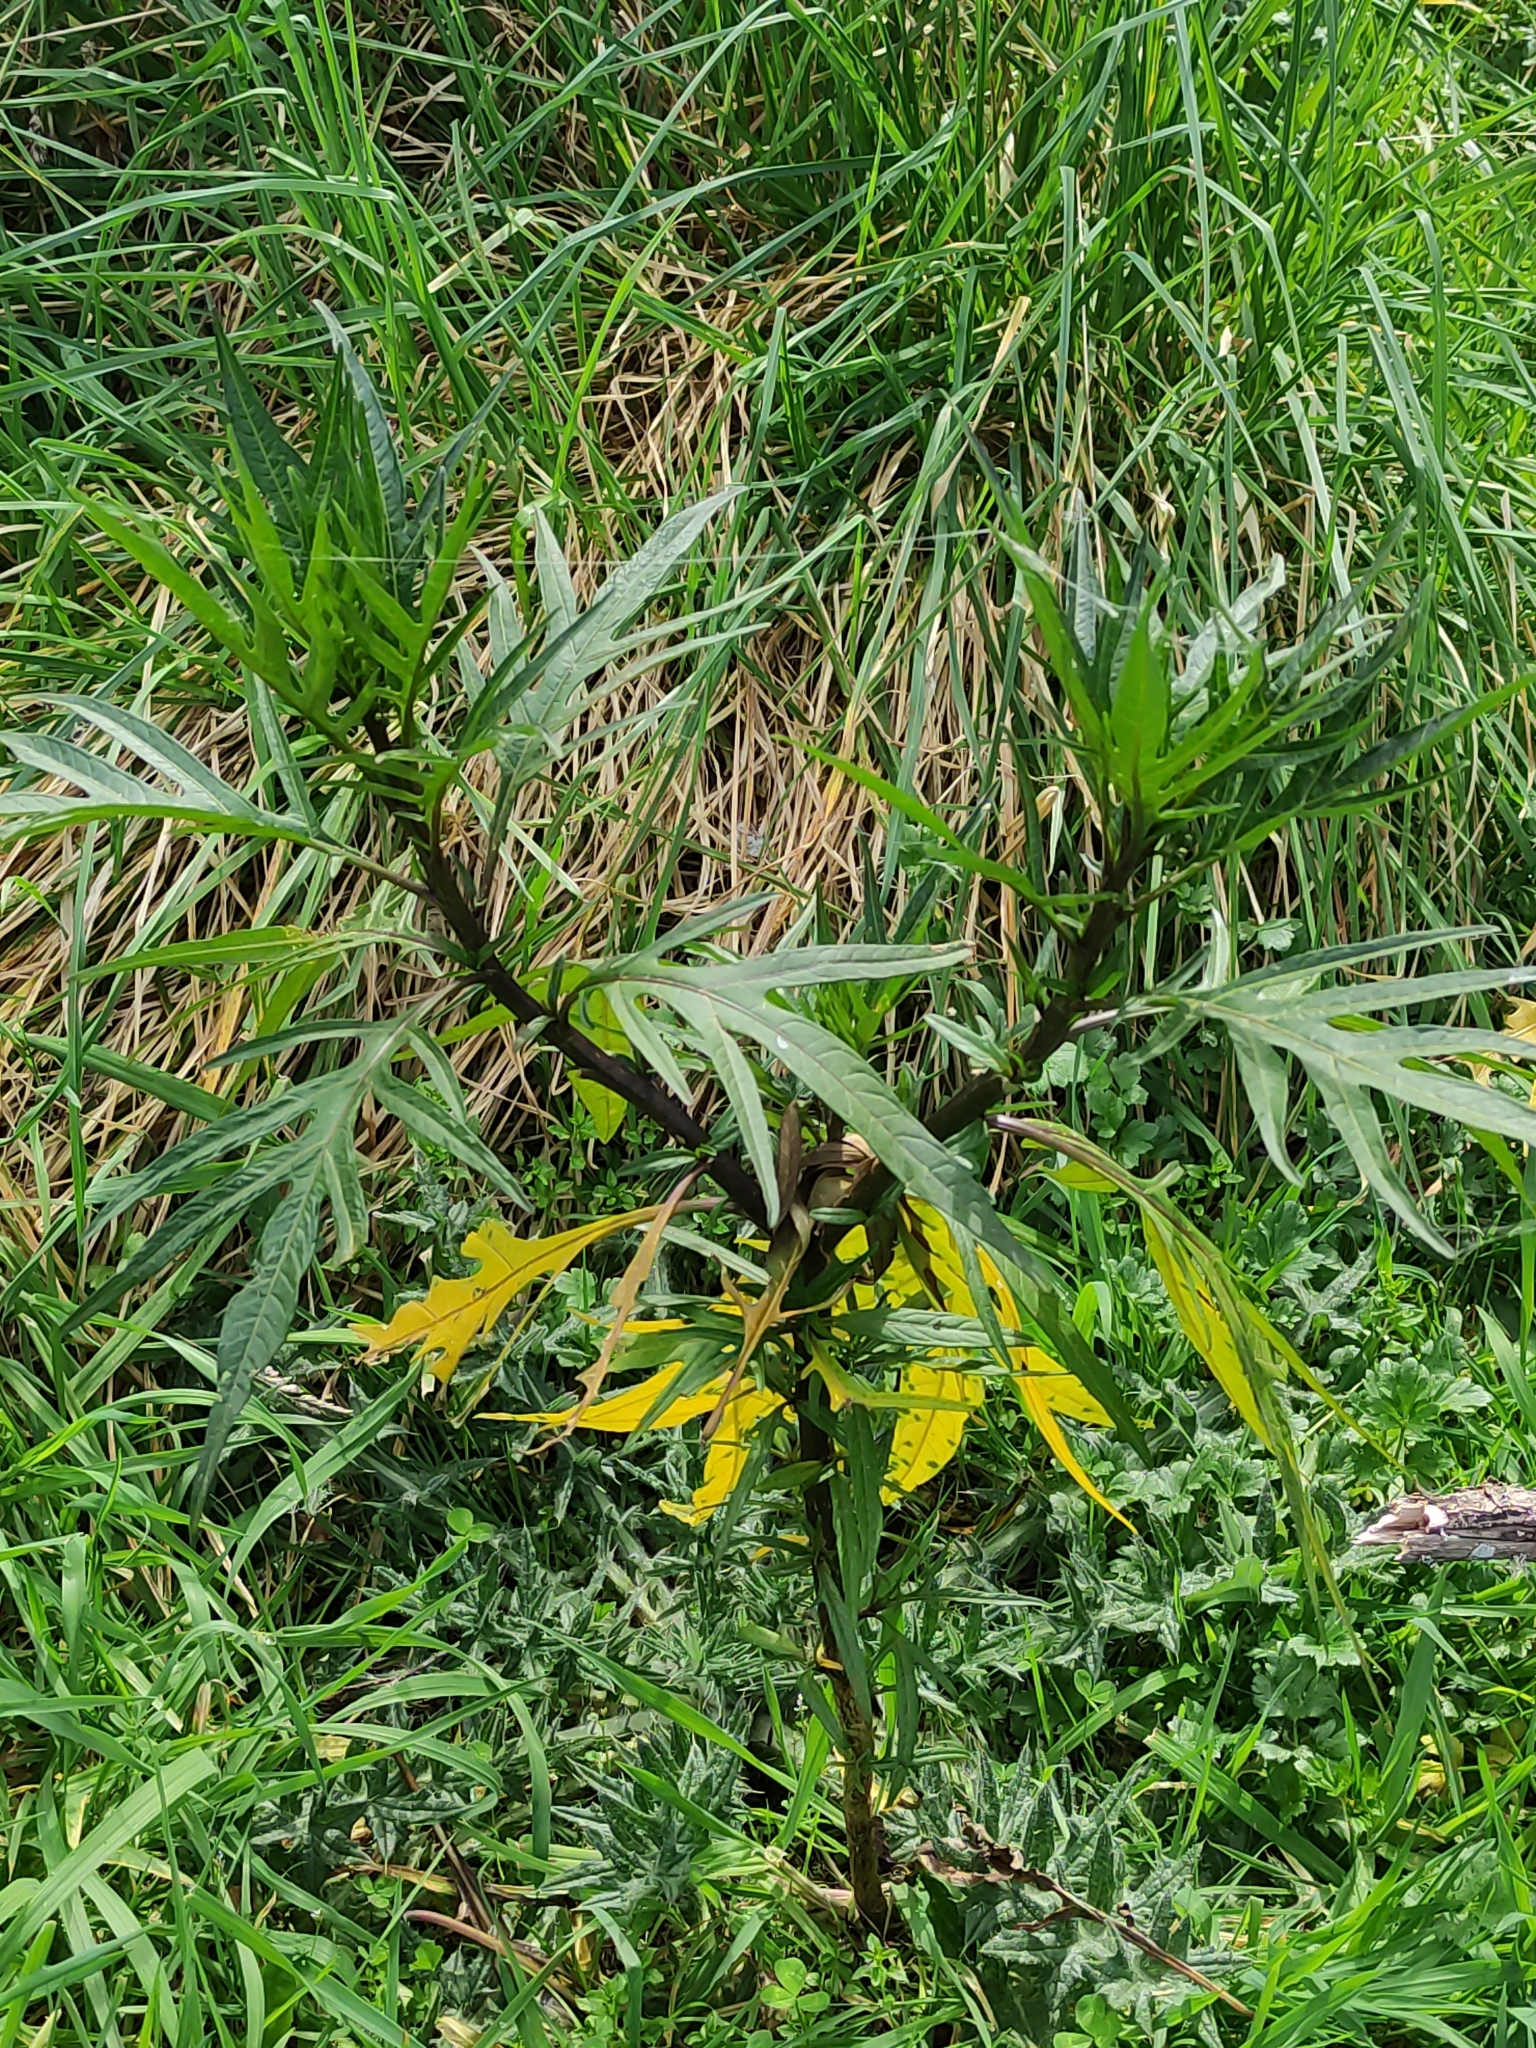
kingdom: Plantae
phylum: Tracheophyta
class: Magnoliopsida
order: Solanales
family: Solanaceae
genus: Solanum
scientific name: Solanum
